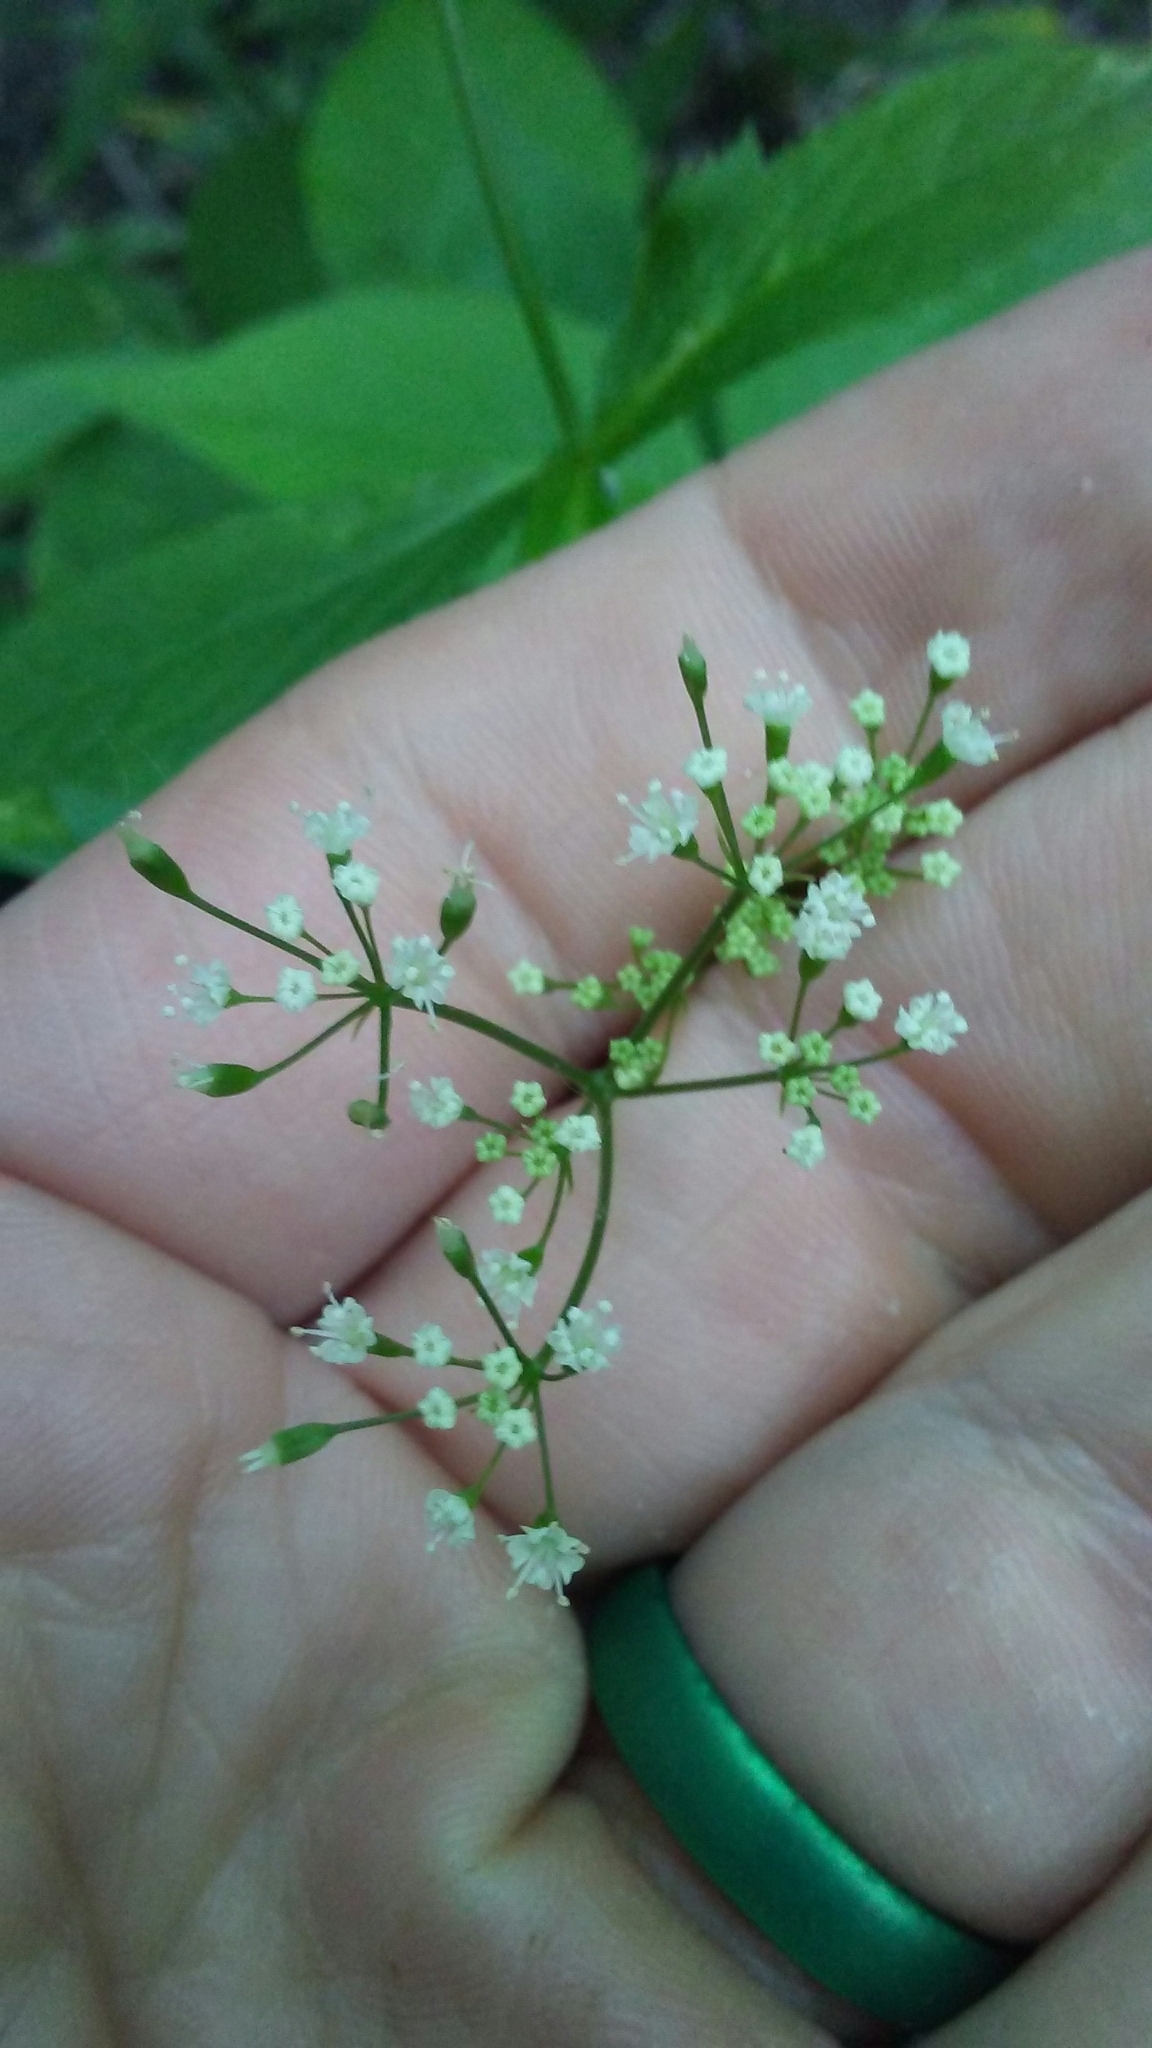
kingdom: Plantae
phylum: Tracheophyta
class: Magnoliopsida
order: Apiales
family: Apiaceae
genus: Cryptotaenia
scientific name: Cryptotaenia canadensis
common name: Honewort
